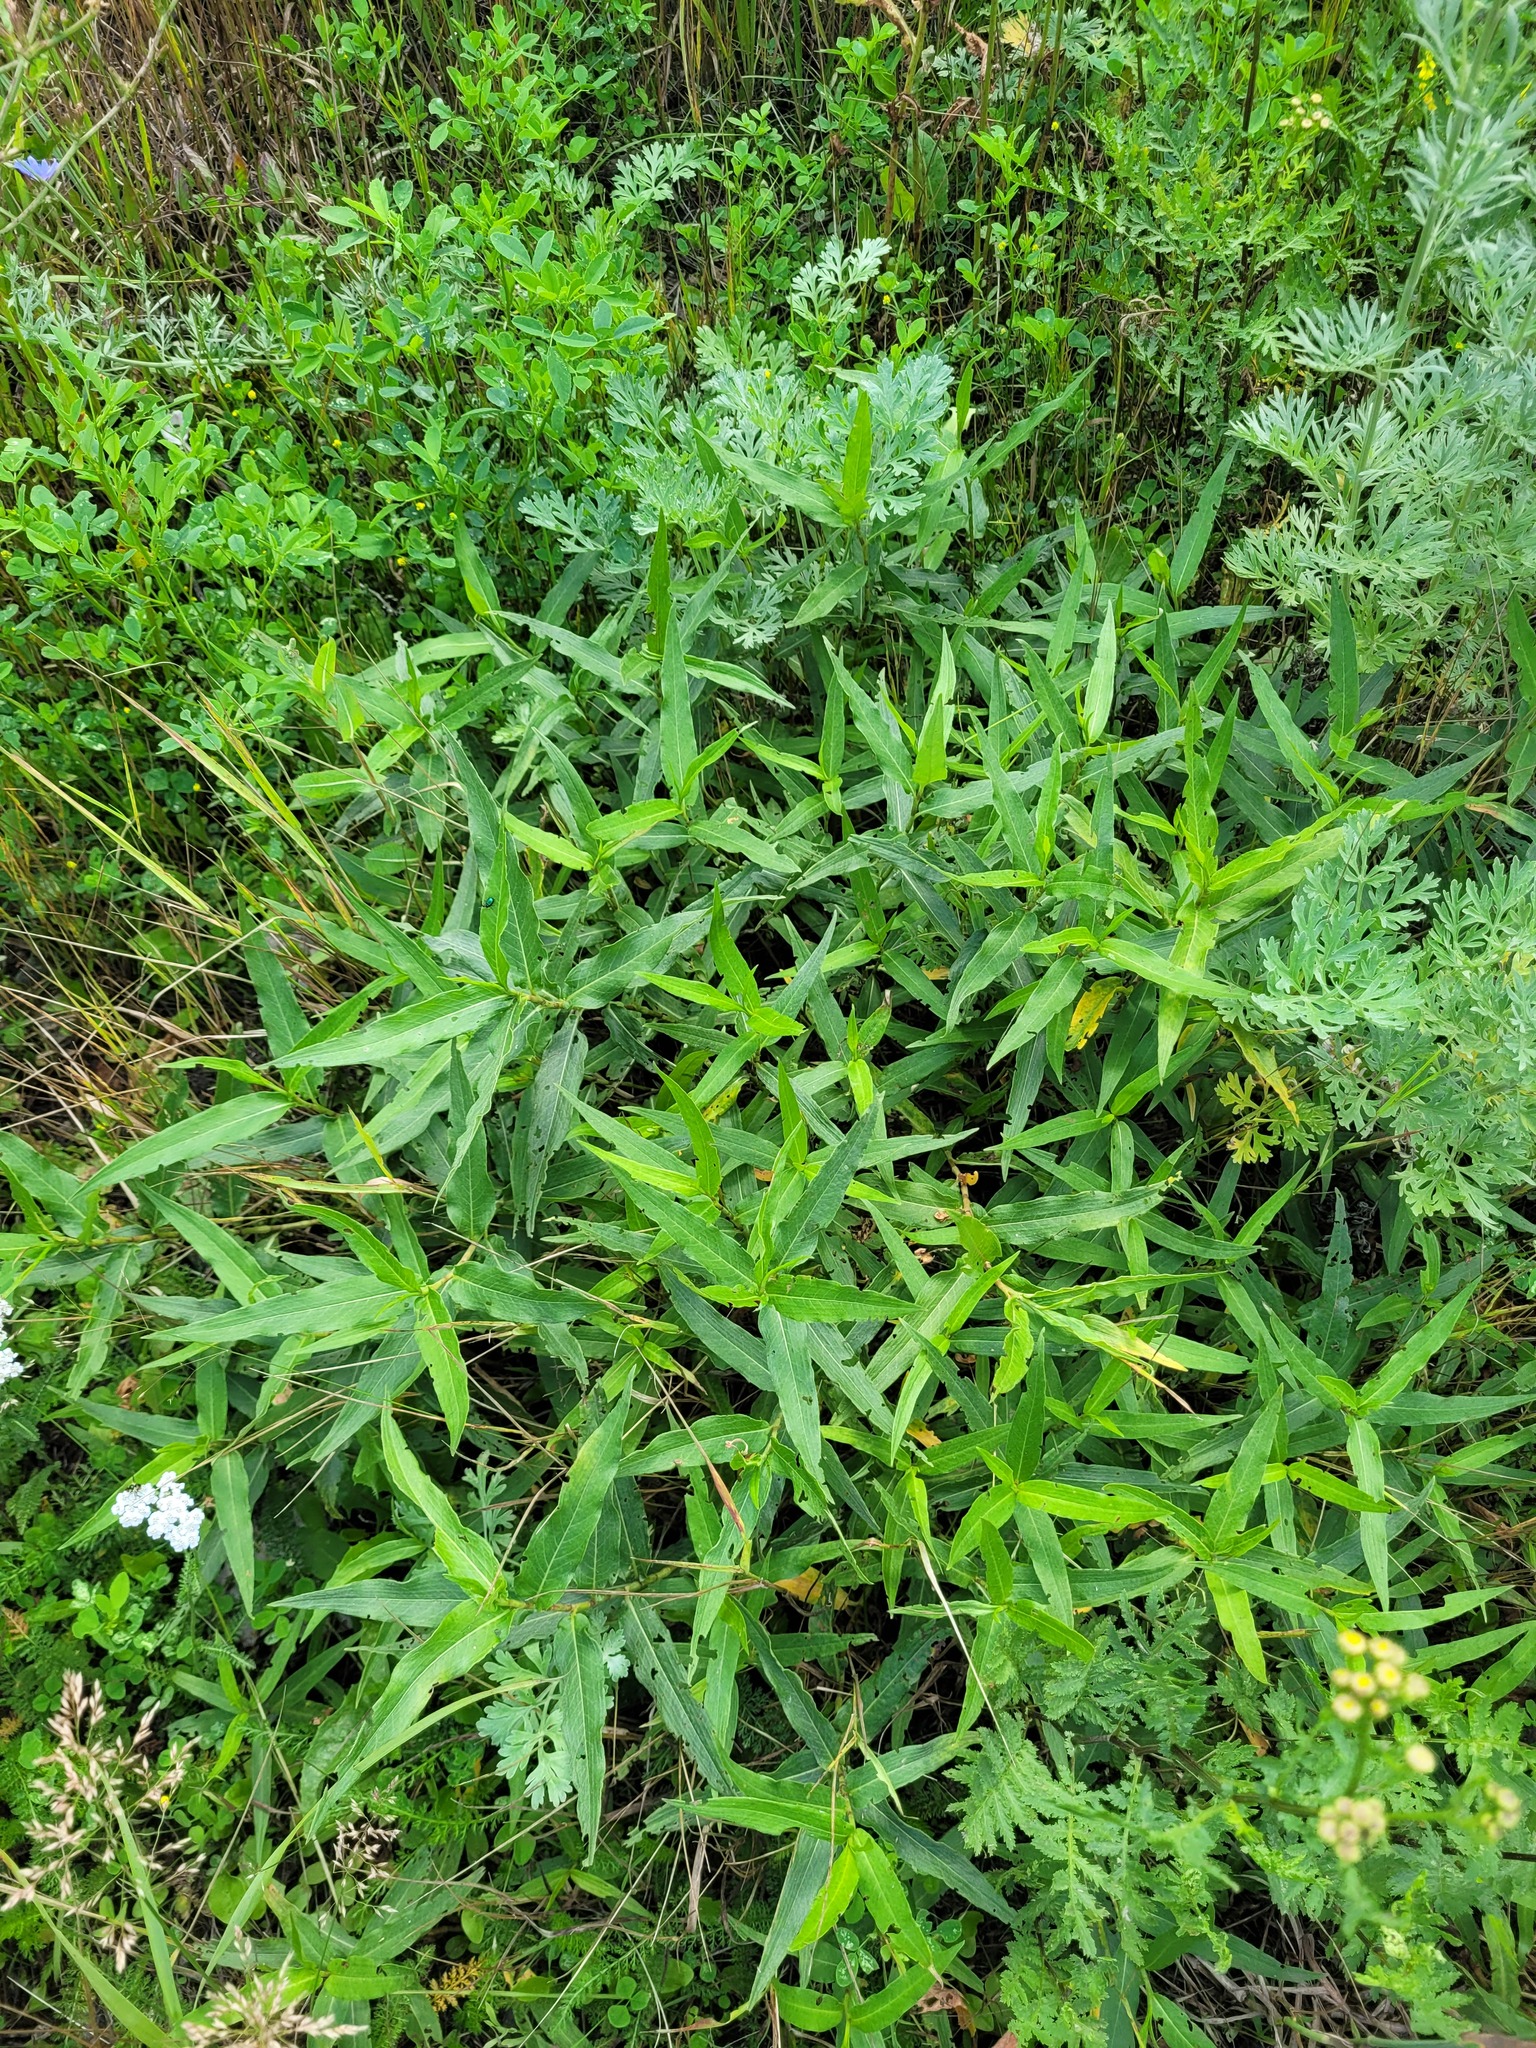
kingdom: Plantae
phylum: Tracheophyta
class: Magnoliopsida
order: Caryophyllales
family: Polygonaceae
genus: Persicaria
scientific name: Persicaria amphibia
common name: Amphibious bistort
